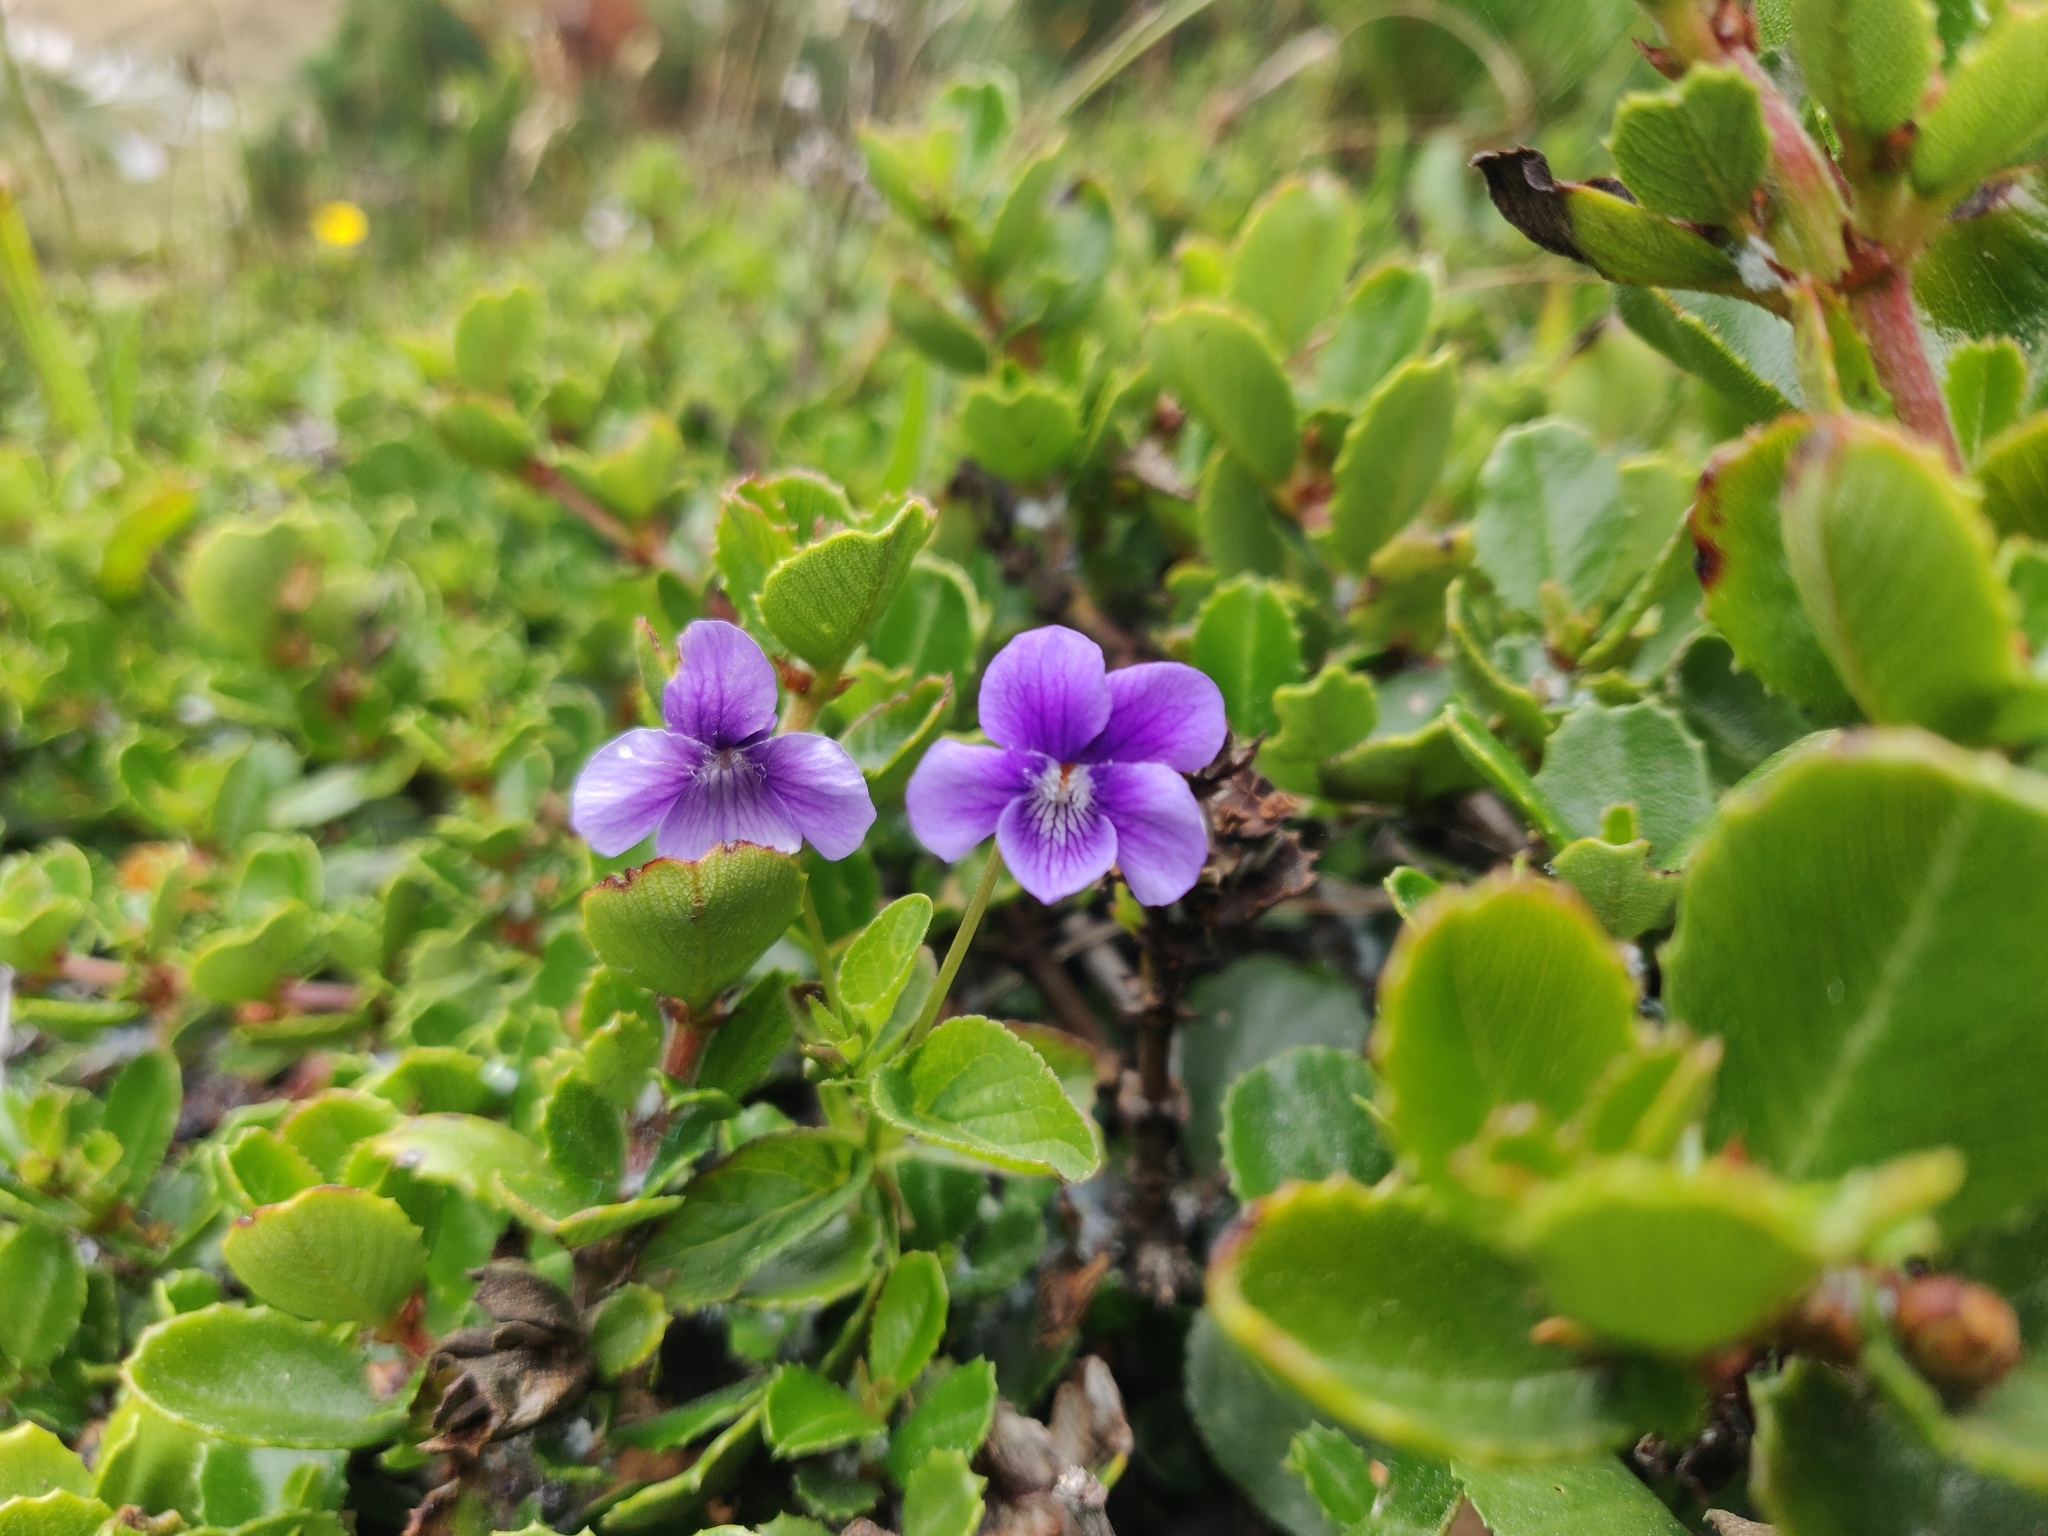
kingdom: Plantae
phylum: Tracheophyta
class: Magnoliopsida
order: Malpighiales
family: Violaceae
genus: Viola
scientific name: Viola adunca
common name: Sand violet
